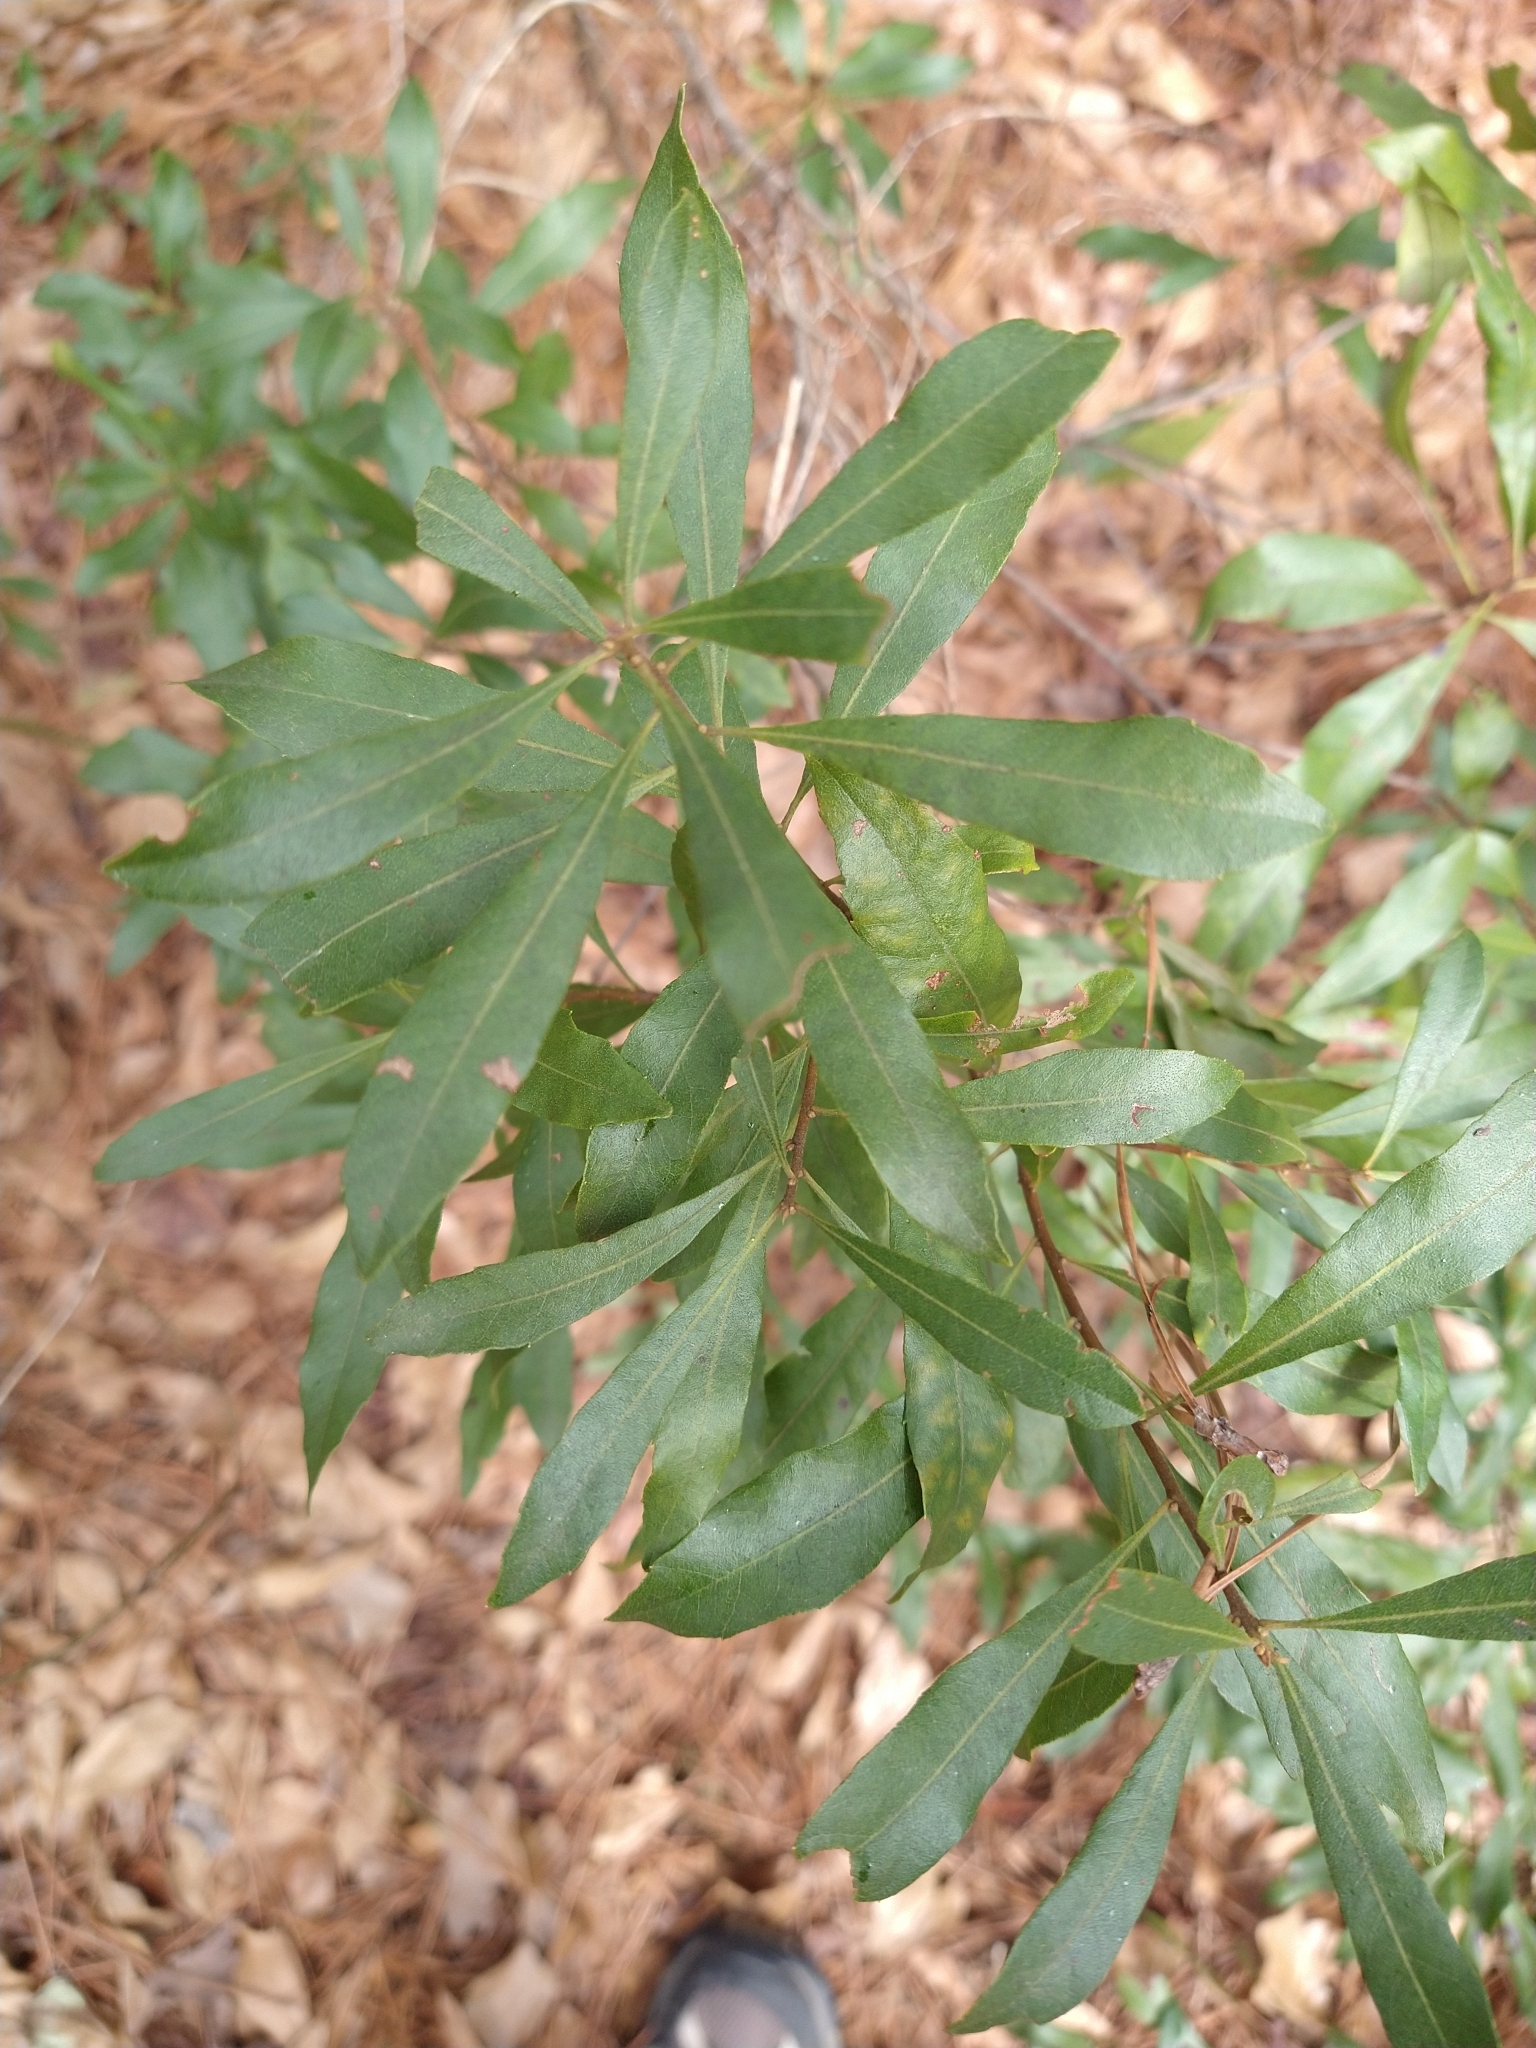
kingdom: Plantae
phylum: Tracheophyta
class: Magnoliopsida
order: Fagales
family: Myricaceae
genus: Morella
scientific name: Morella cerifera
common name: Wax myrtle
